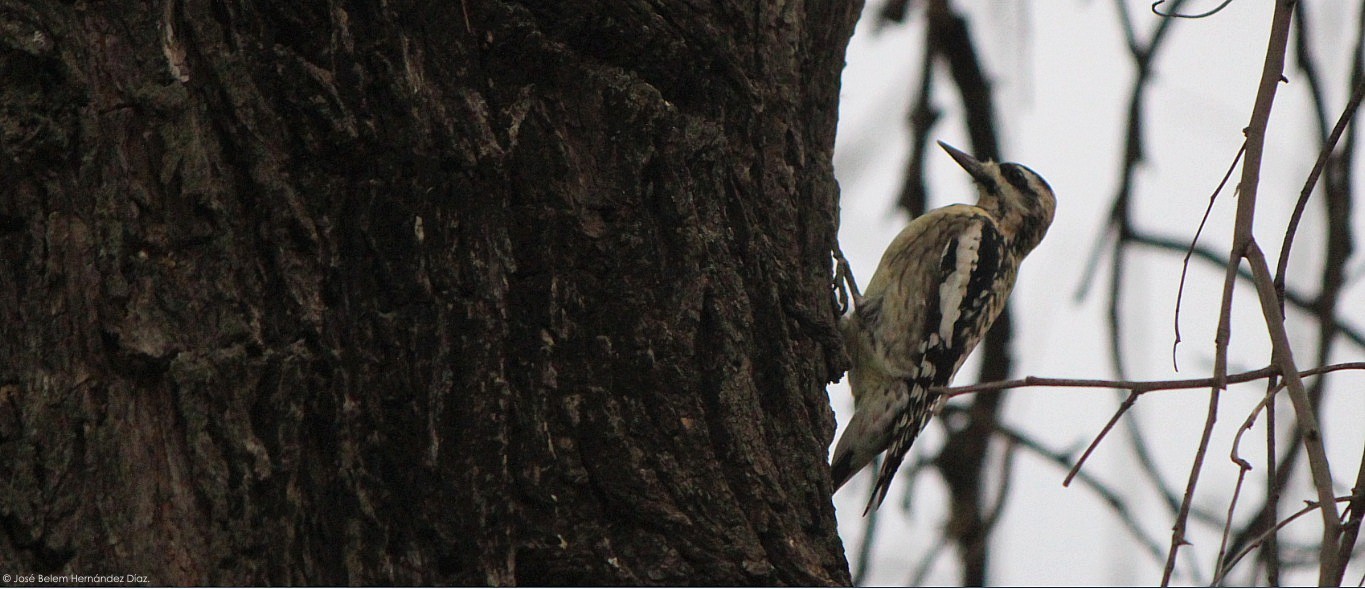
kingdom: Animalia
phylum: Chordata
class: Aves
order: Piciformes
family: Picidae
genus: Sphyrapicus
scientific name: Sphyrapicus varius
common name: Yellow-bellied sapsucker
